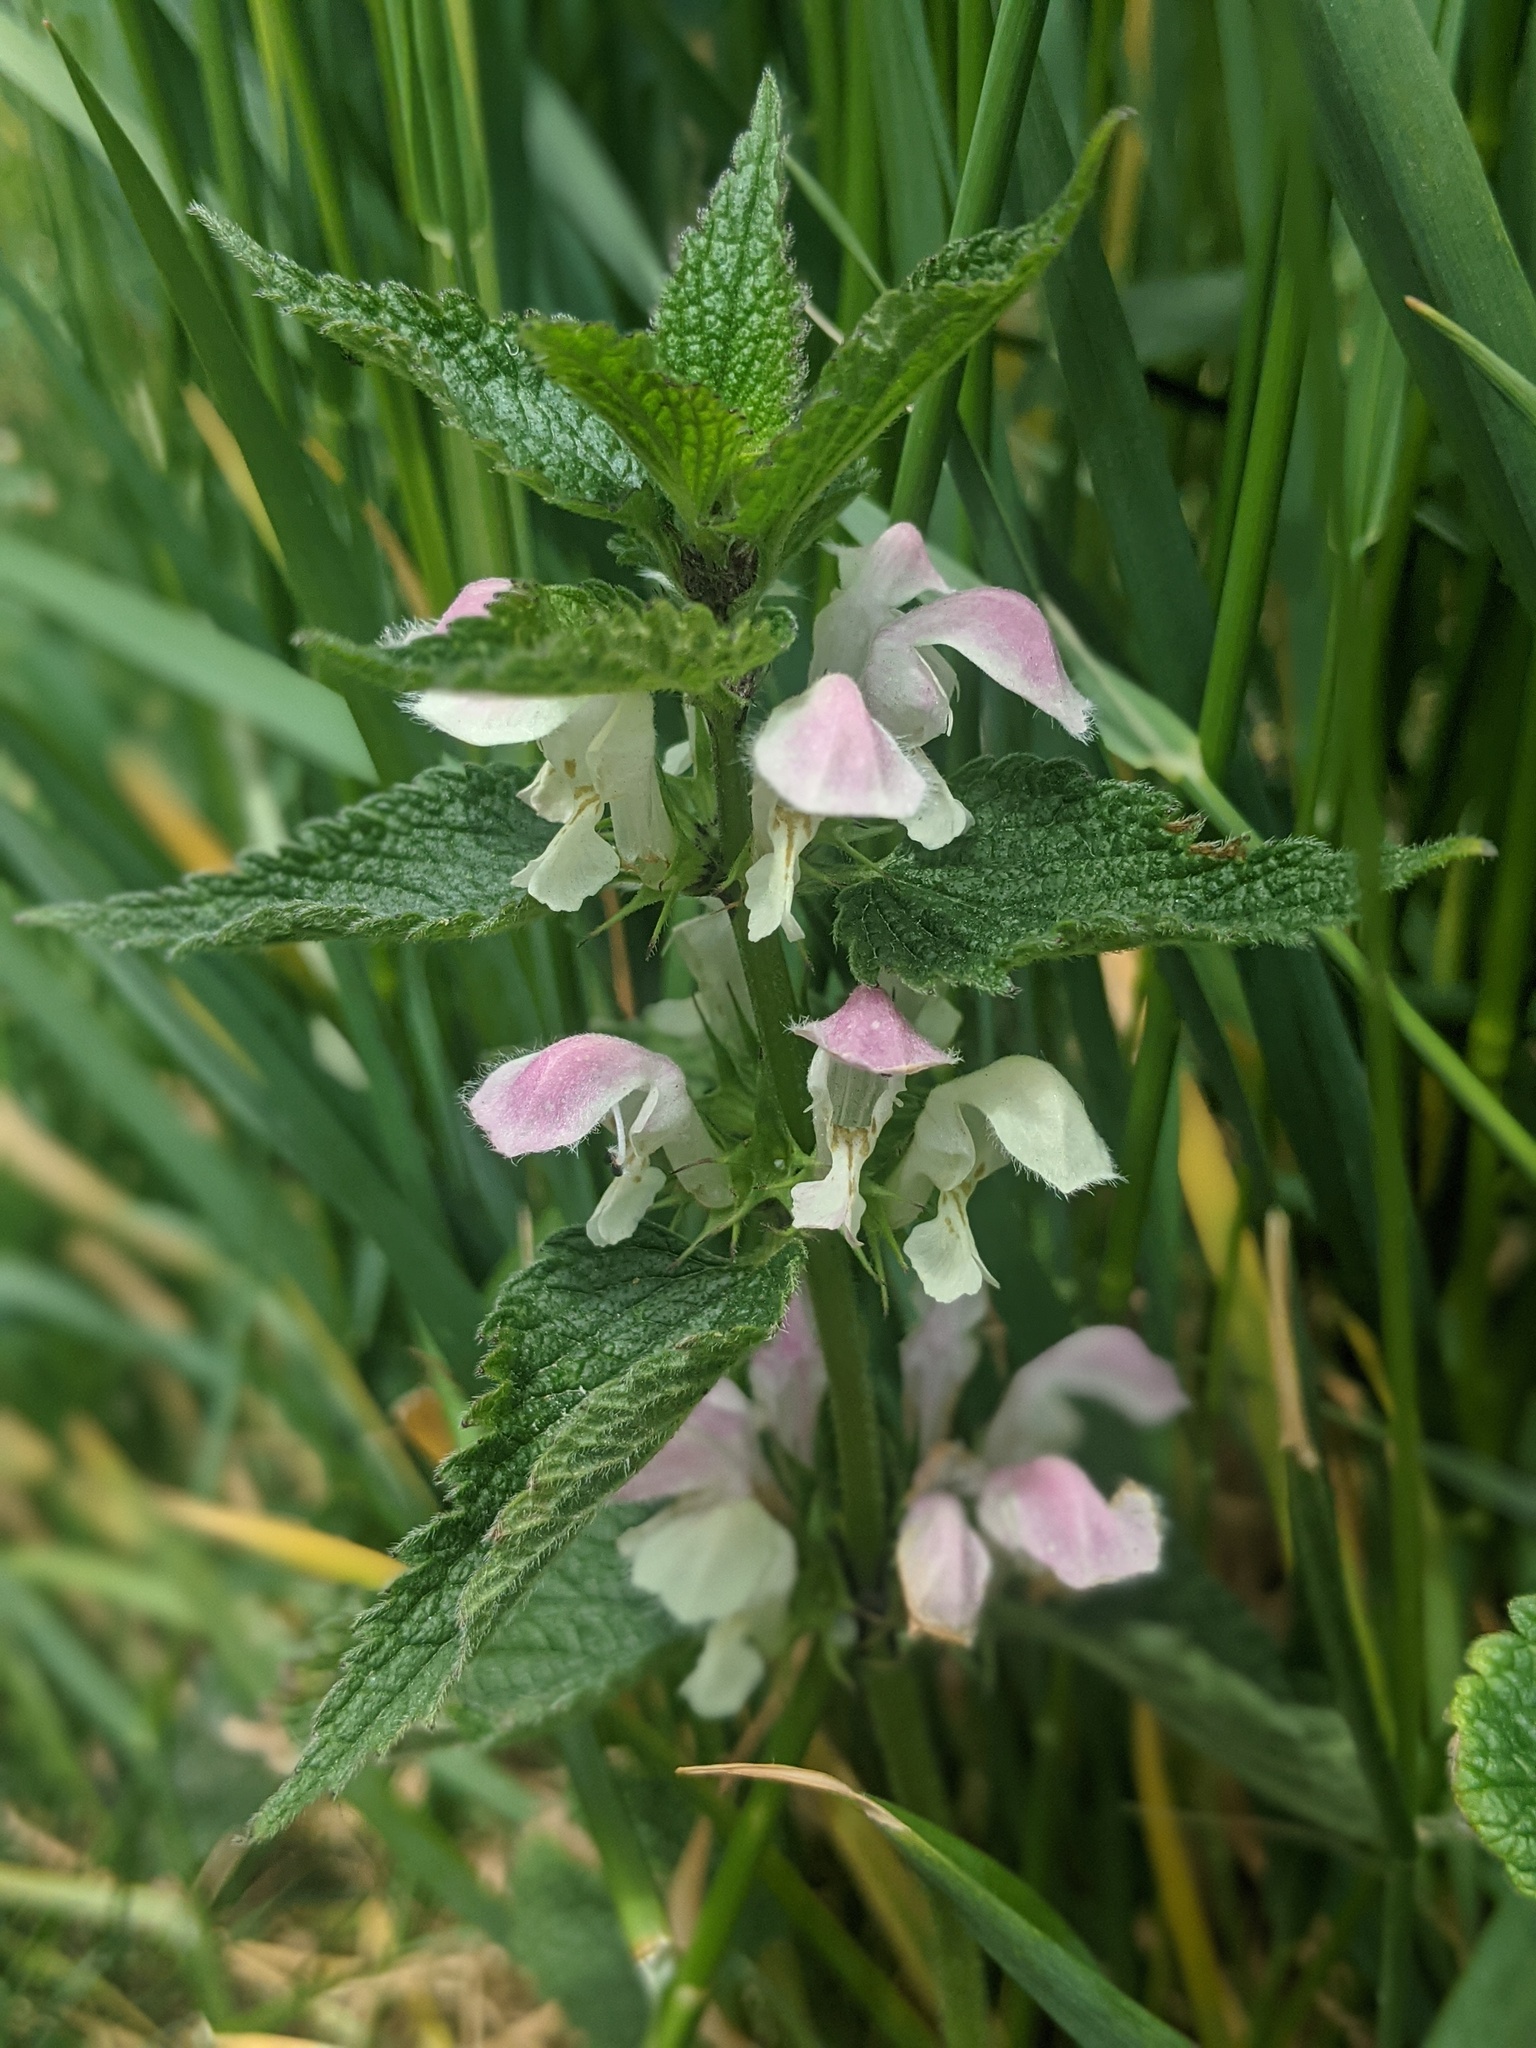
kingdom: Plantae
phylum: Tracheophyta
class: Magnoliopsida
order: Lamiales
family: Lamiaceae
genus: Lamium
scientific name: Lamium album
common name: White dead-nettle
